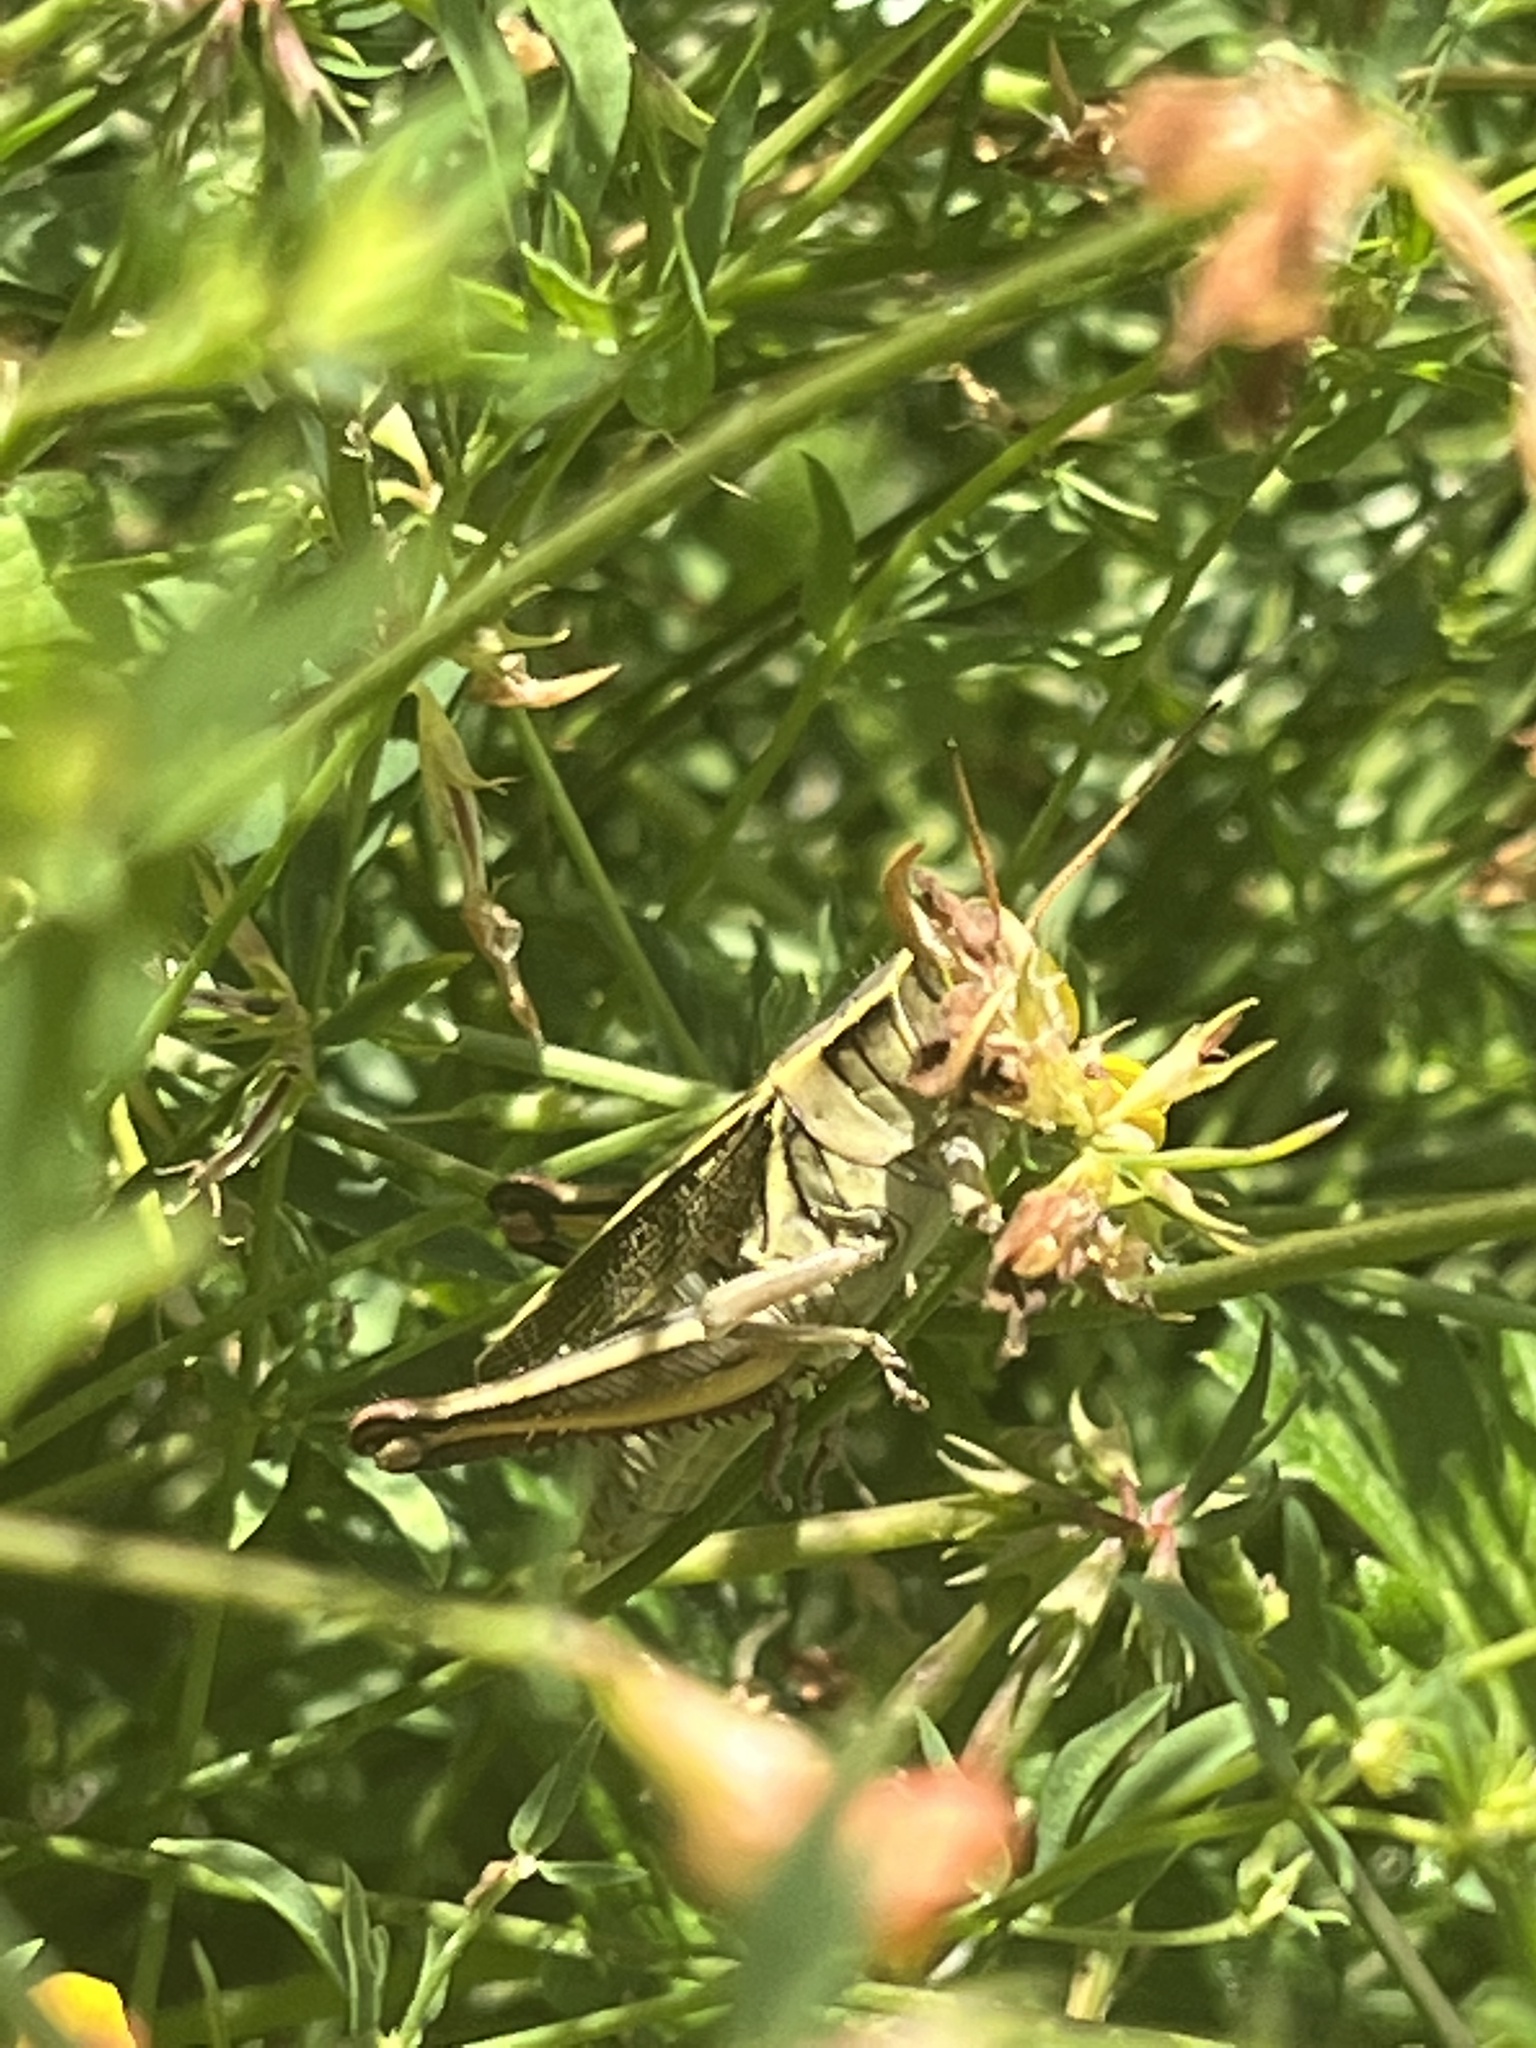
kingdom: Animalia
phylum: Arthropoda
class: Insecta
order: Orthoptera
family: Acrididae
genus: Melanoplus
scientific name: Melanoplus bivittatus
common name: Two-striped grasshopper
